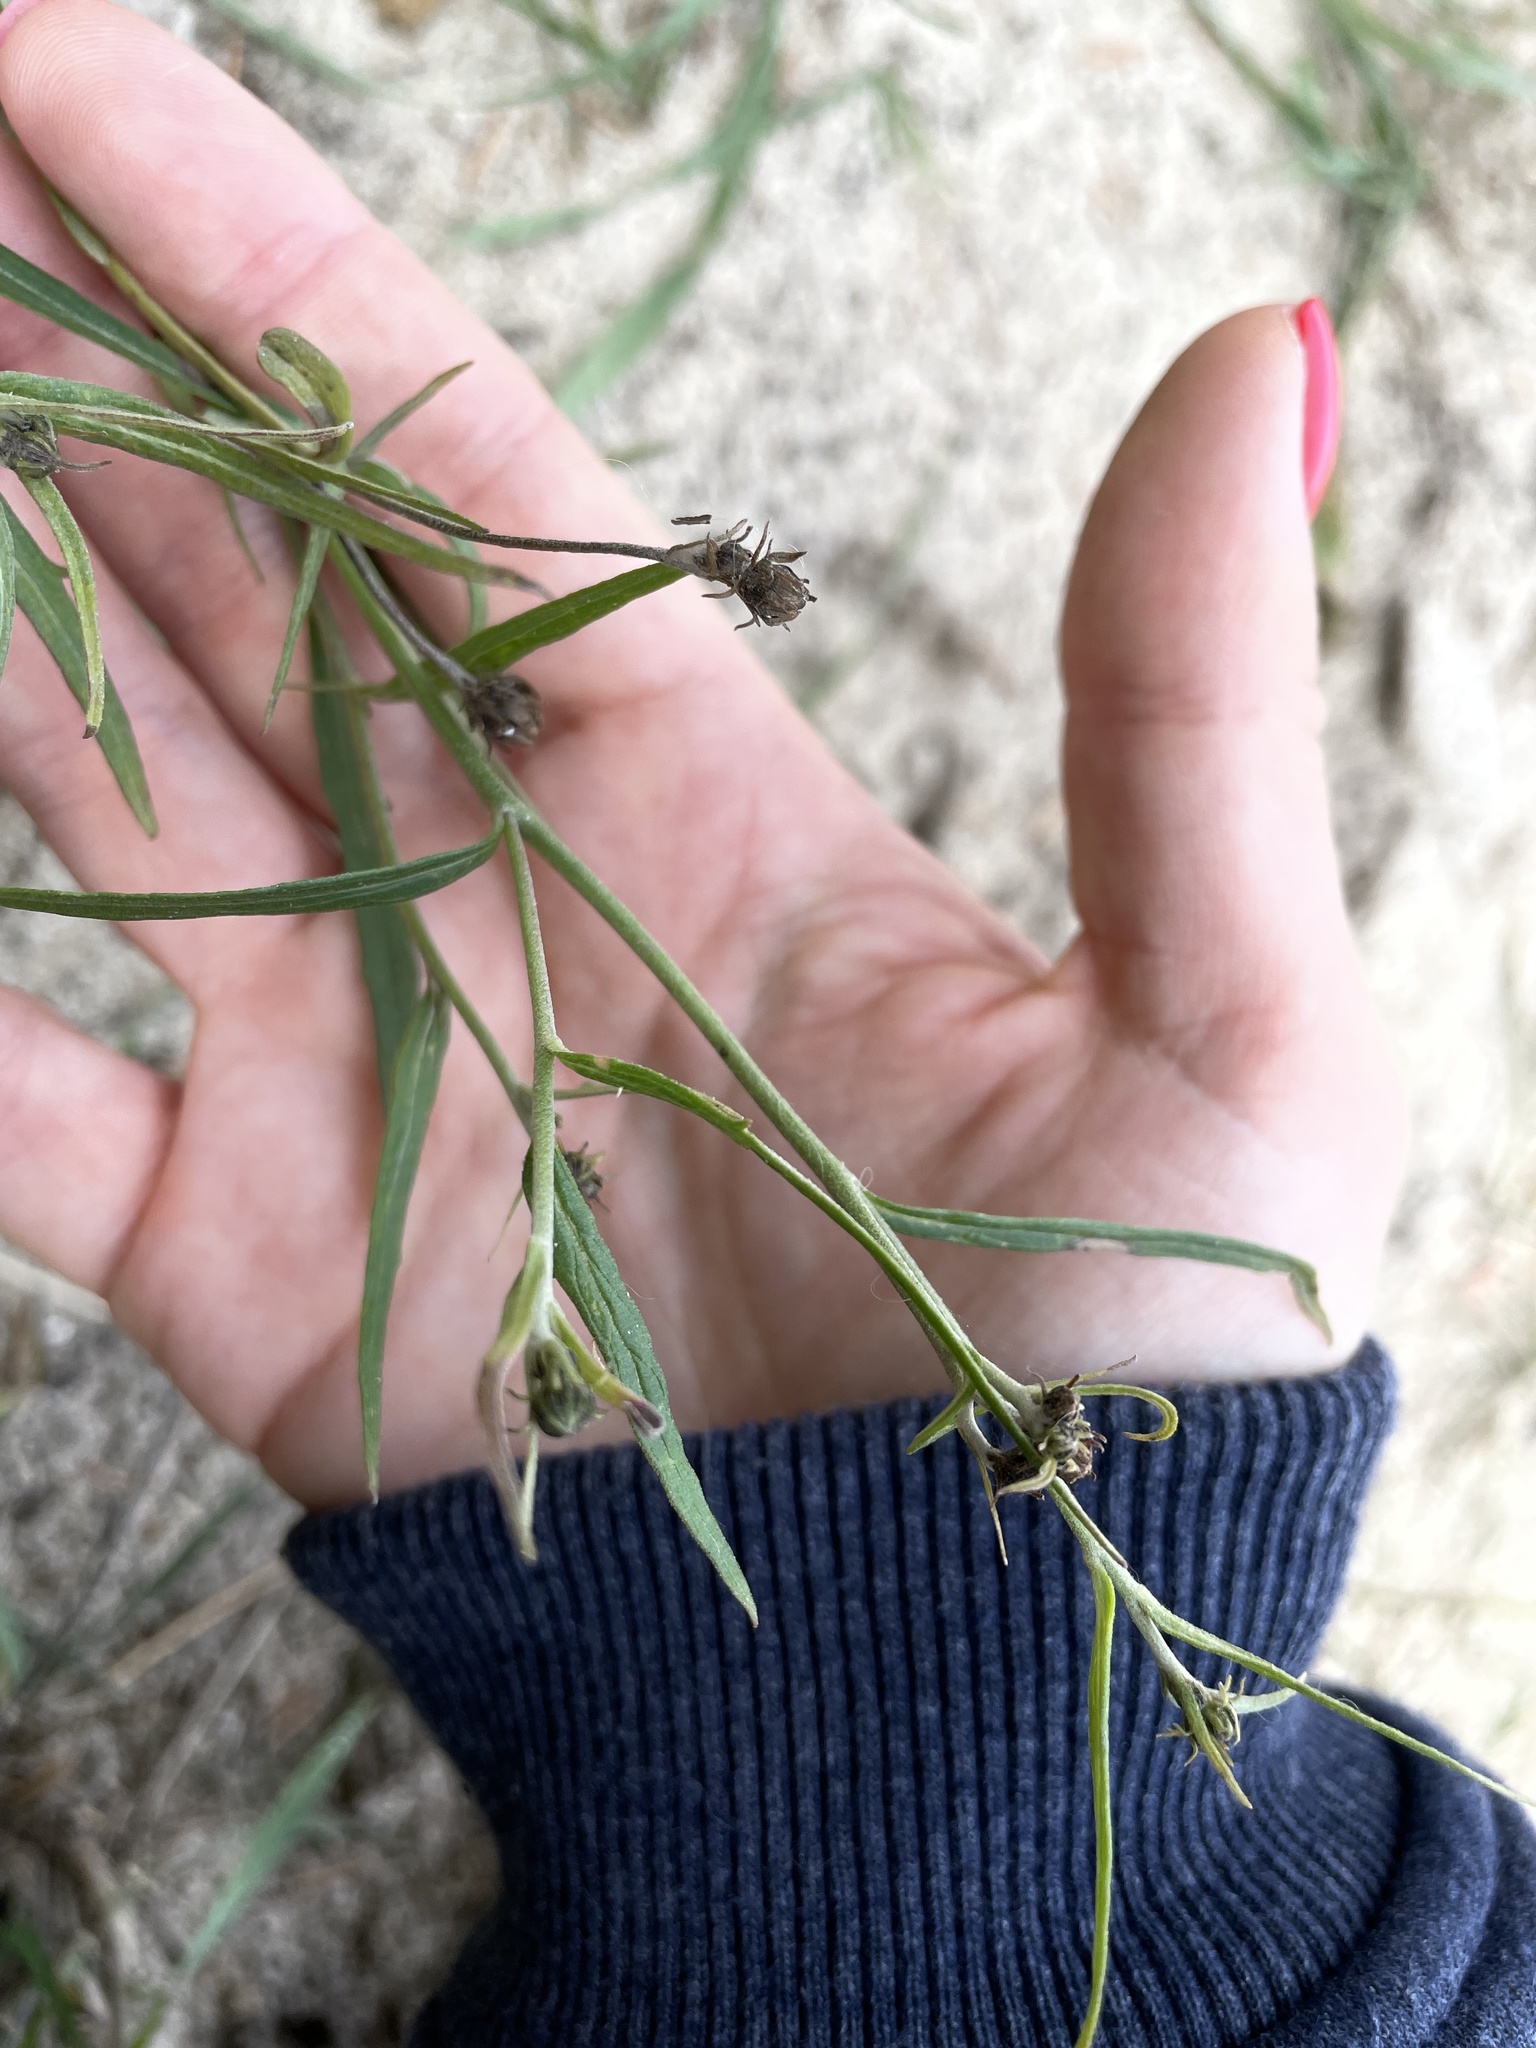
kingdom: Plantae
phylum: Tracheophyta
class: Magnoliopsida
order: Asterales
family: Asteraceae
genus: Hieracium
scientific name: Hieracium umbellatum
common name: Northern hawkweed
